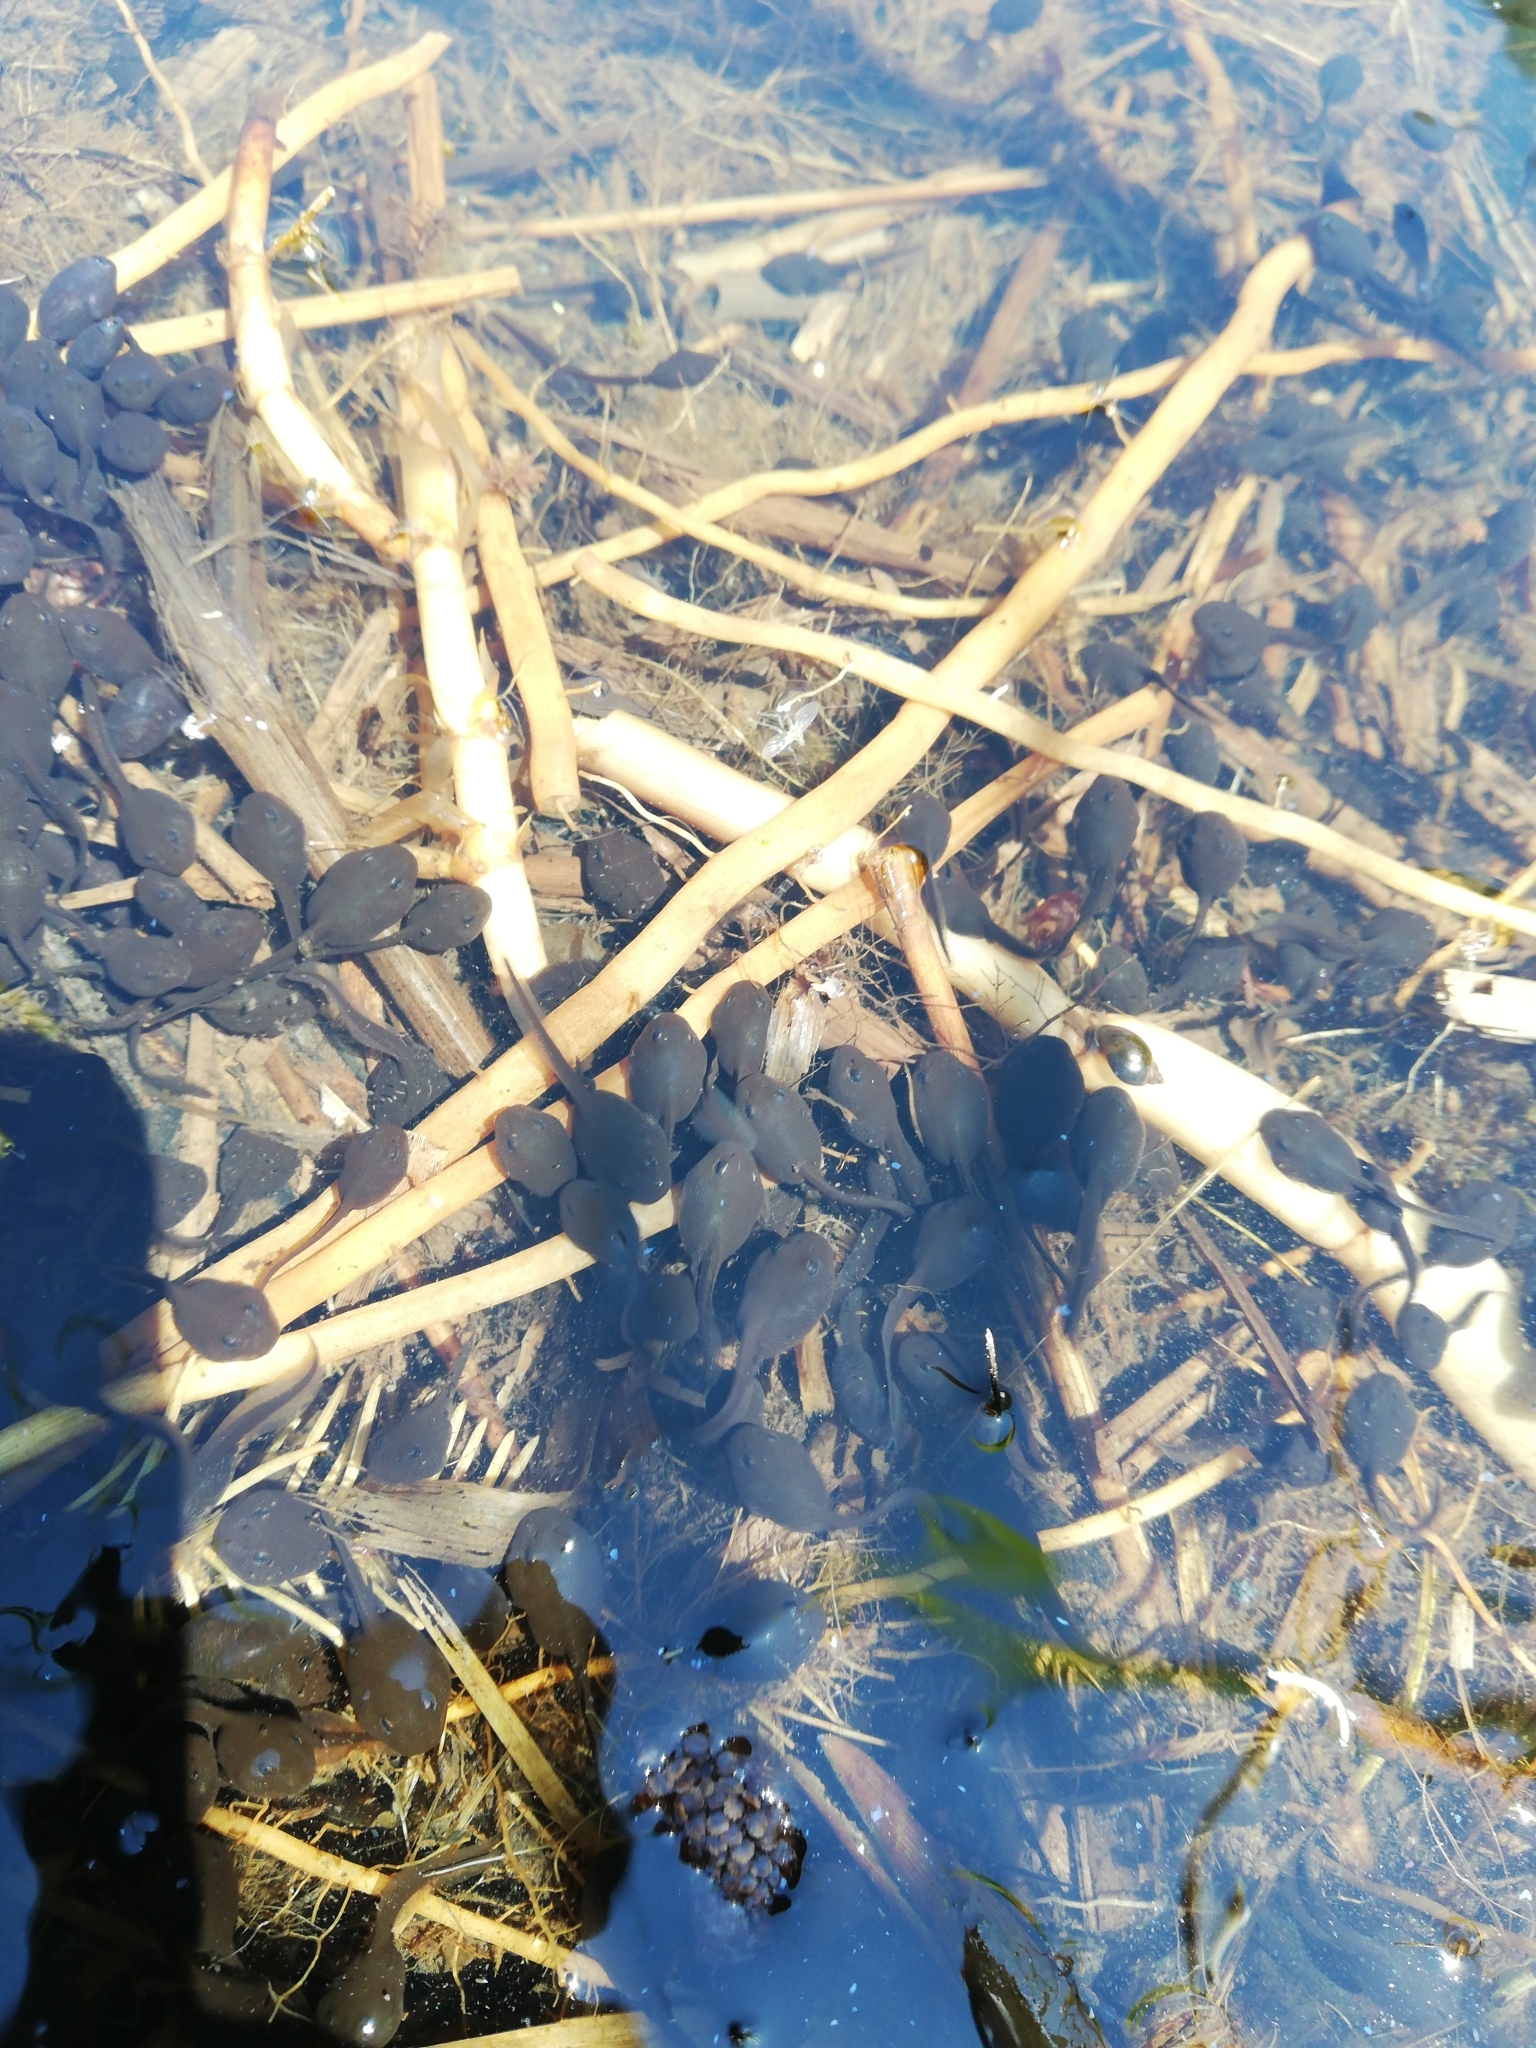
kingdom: Animalia
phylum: Chordata
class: Amphibia
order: Anura
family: Bufonidae
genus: Bufo
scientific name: Bufo bufo
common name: Common toad
